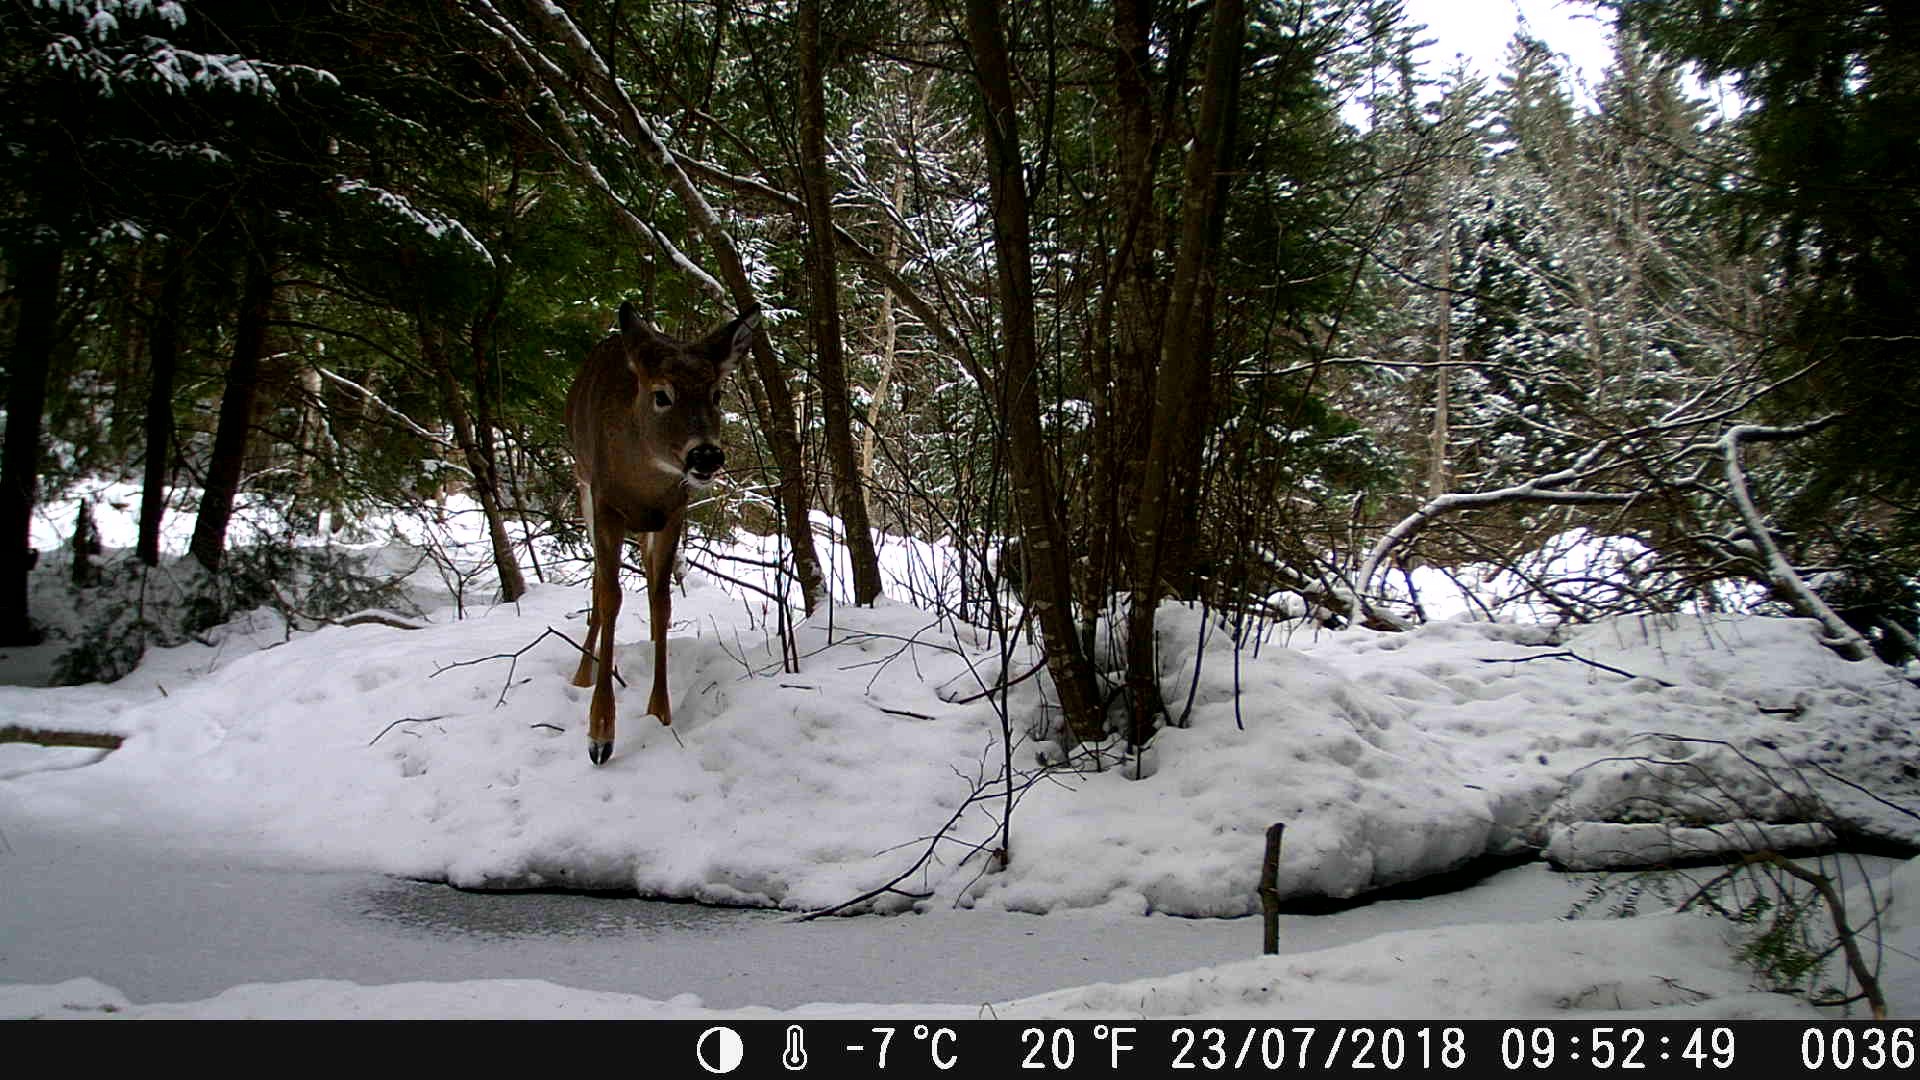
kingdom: Animalia
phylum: Chordata
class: Mammalia
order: Artiodactyla
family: Cervidae
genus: Odocoileus
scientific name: Odocoileus virginianus
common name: White-tailed deer
